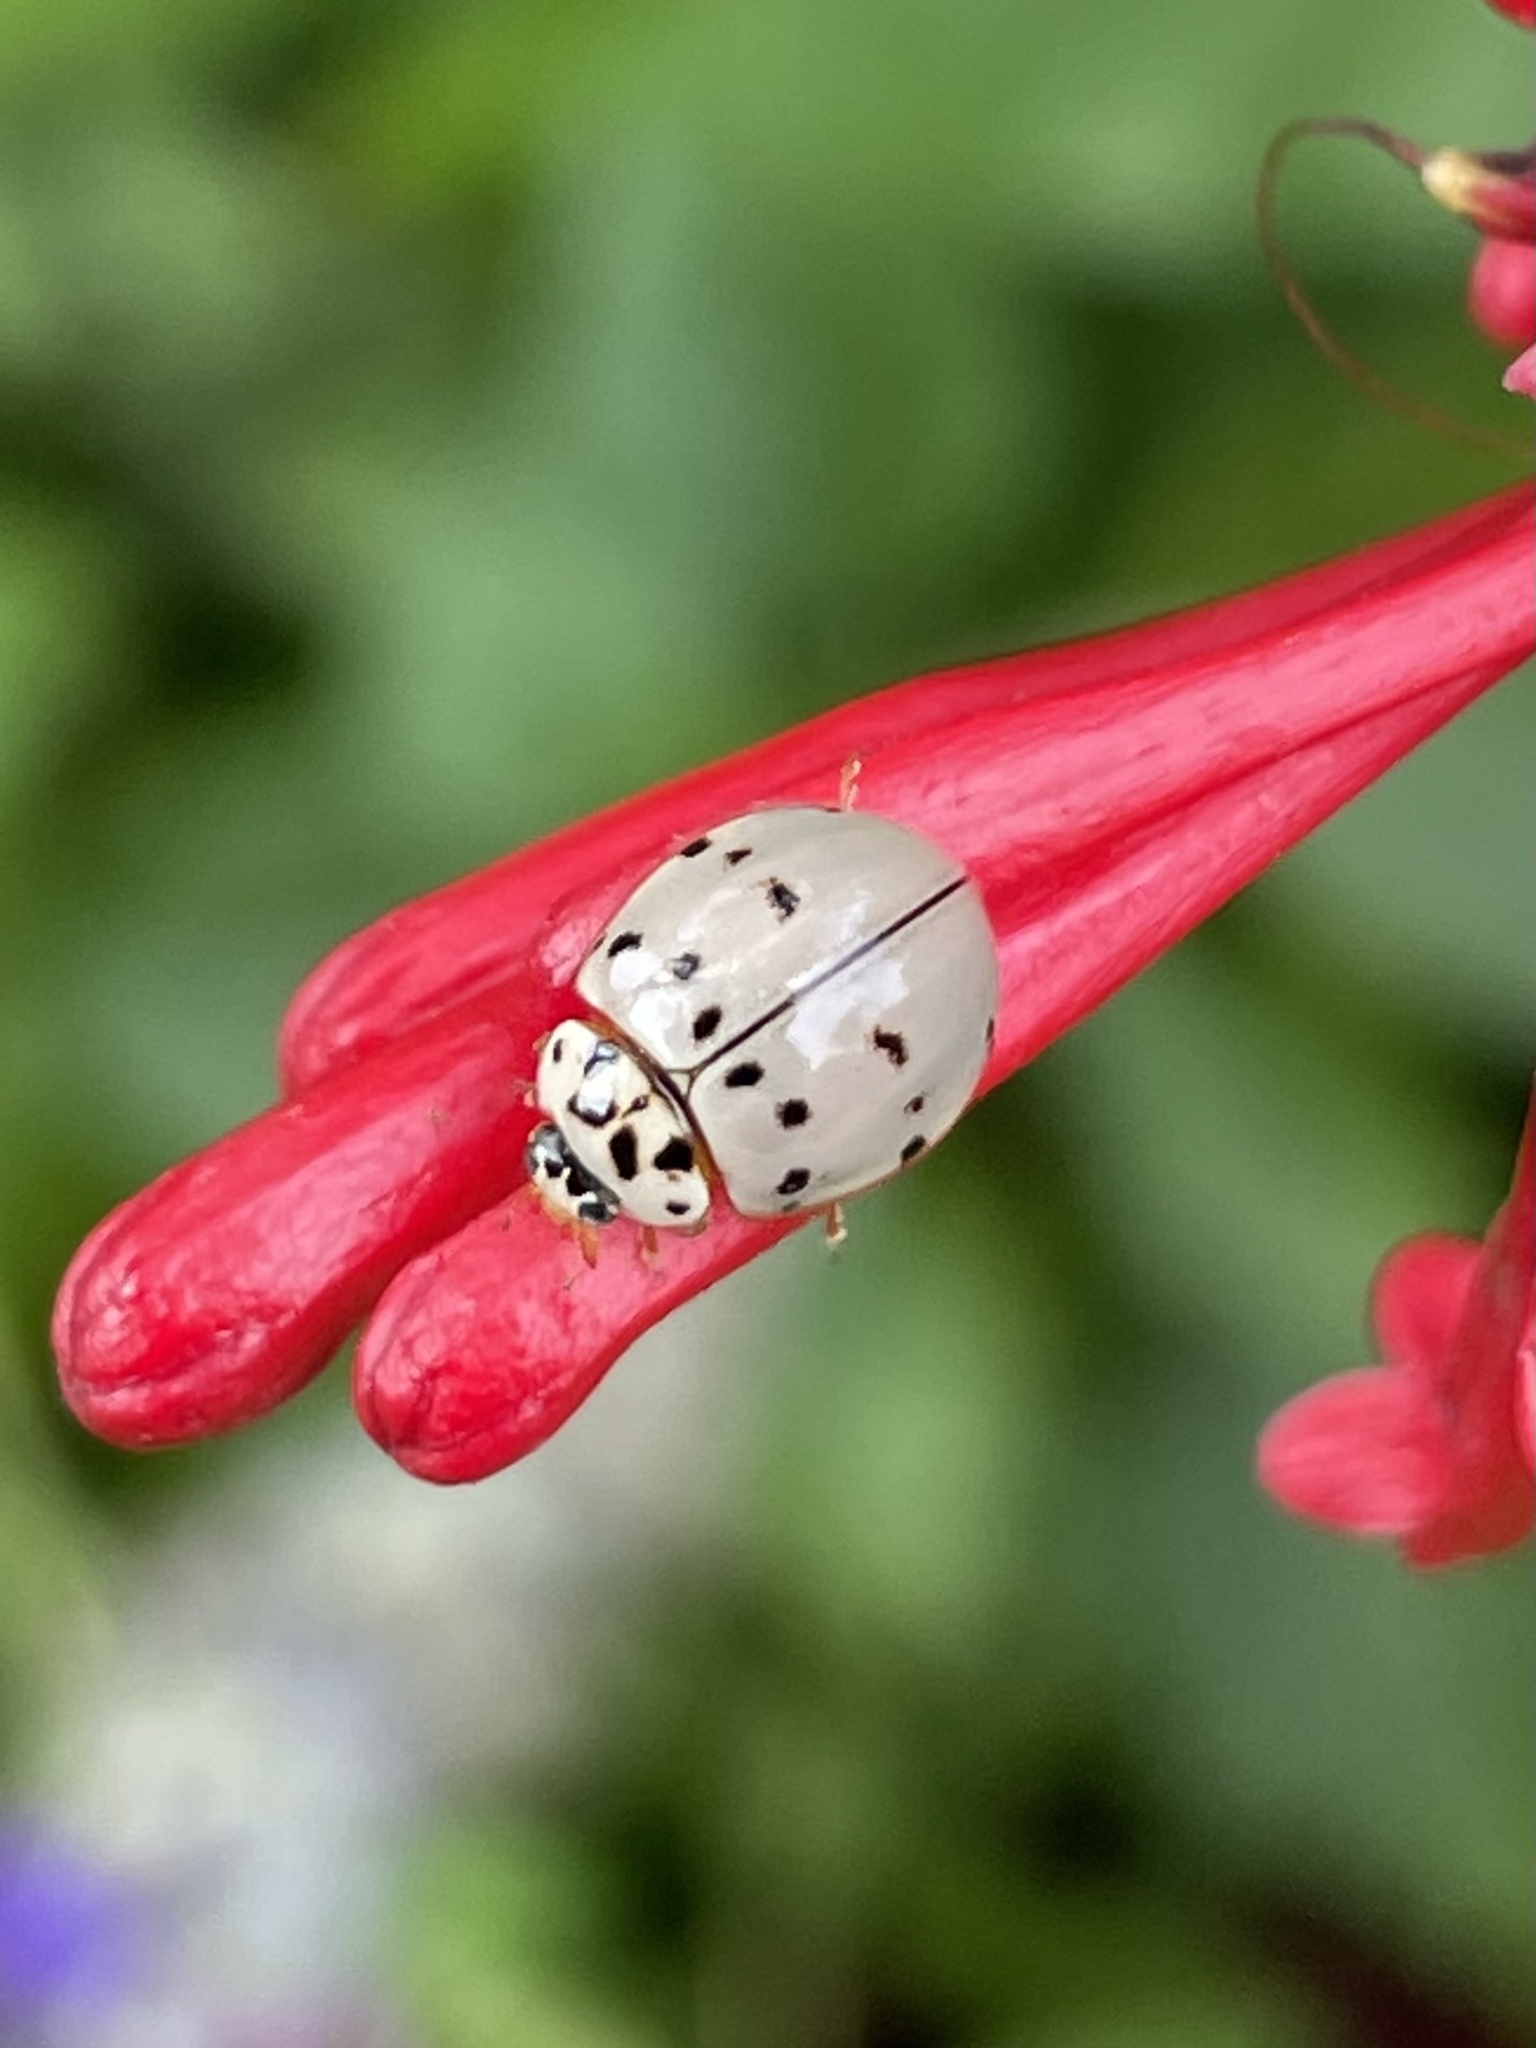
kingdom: Animalia
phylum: Arthropoda
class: Insecta
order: Coleoptera
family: Coccinellidae
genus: Olla
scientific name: Olla v-nigrum
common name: Ashy gray lady beetle
